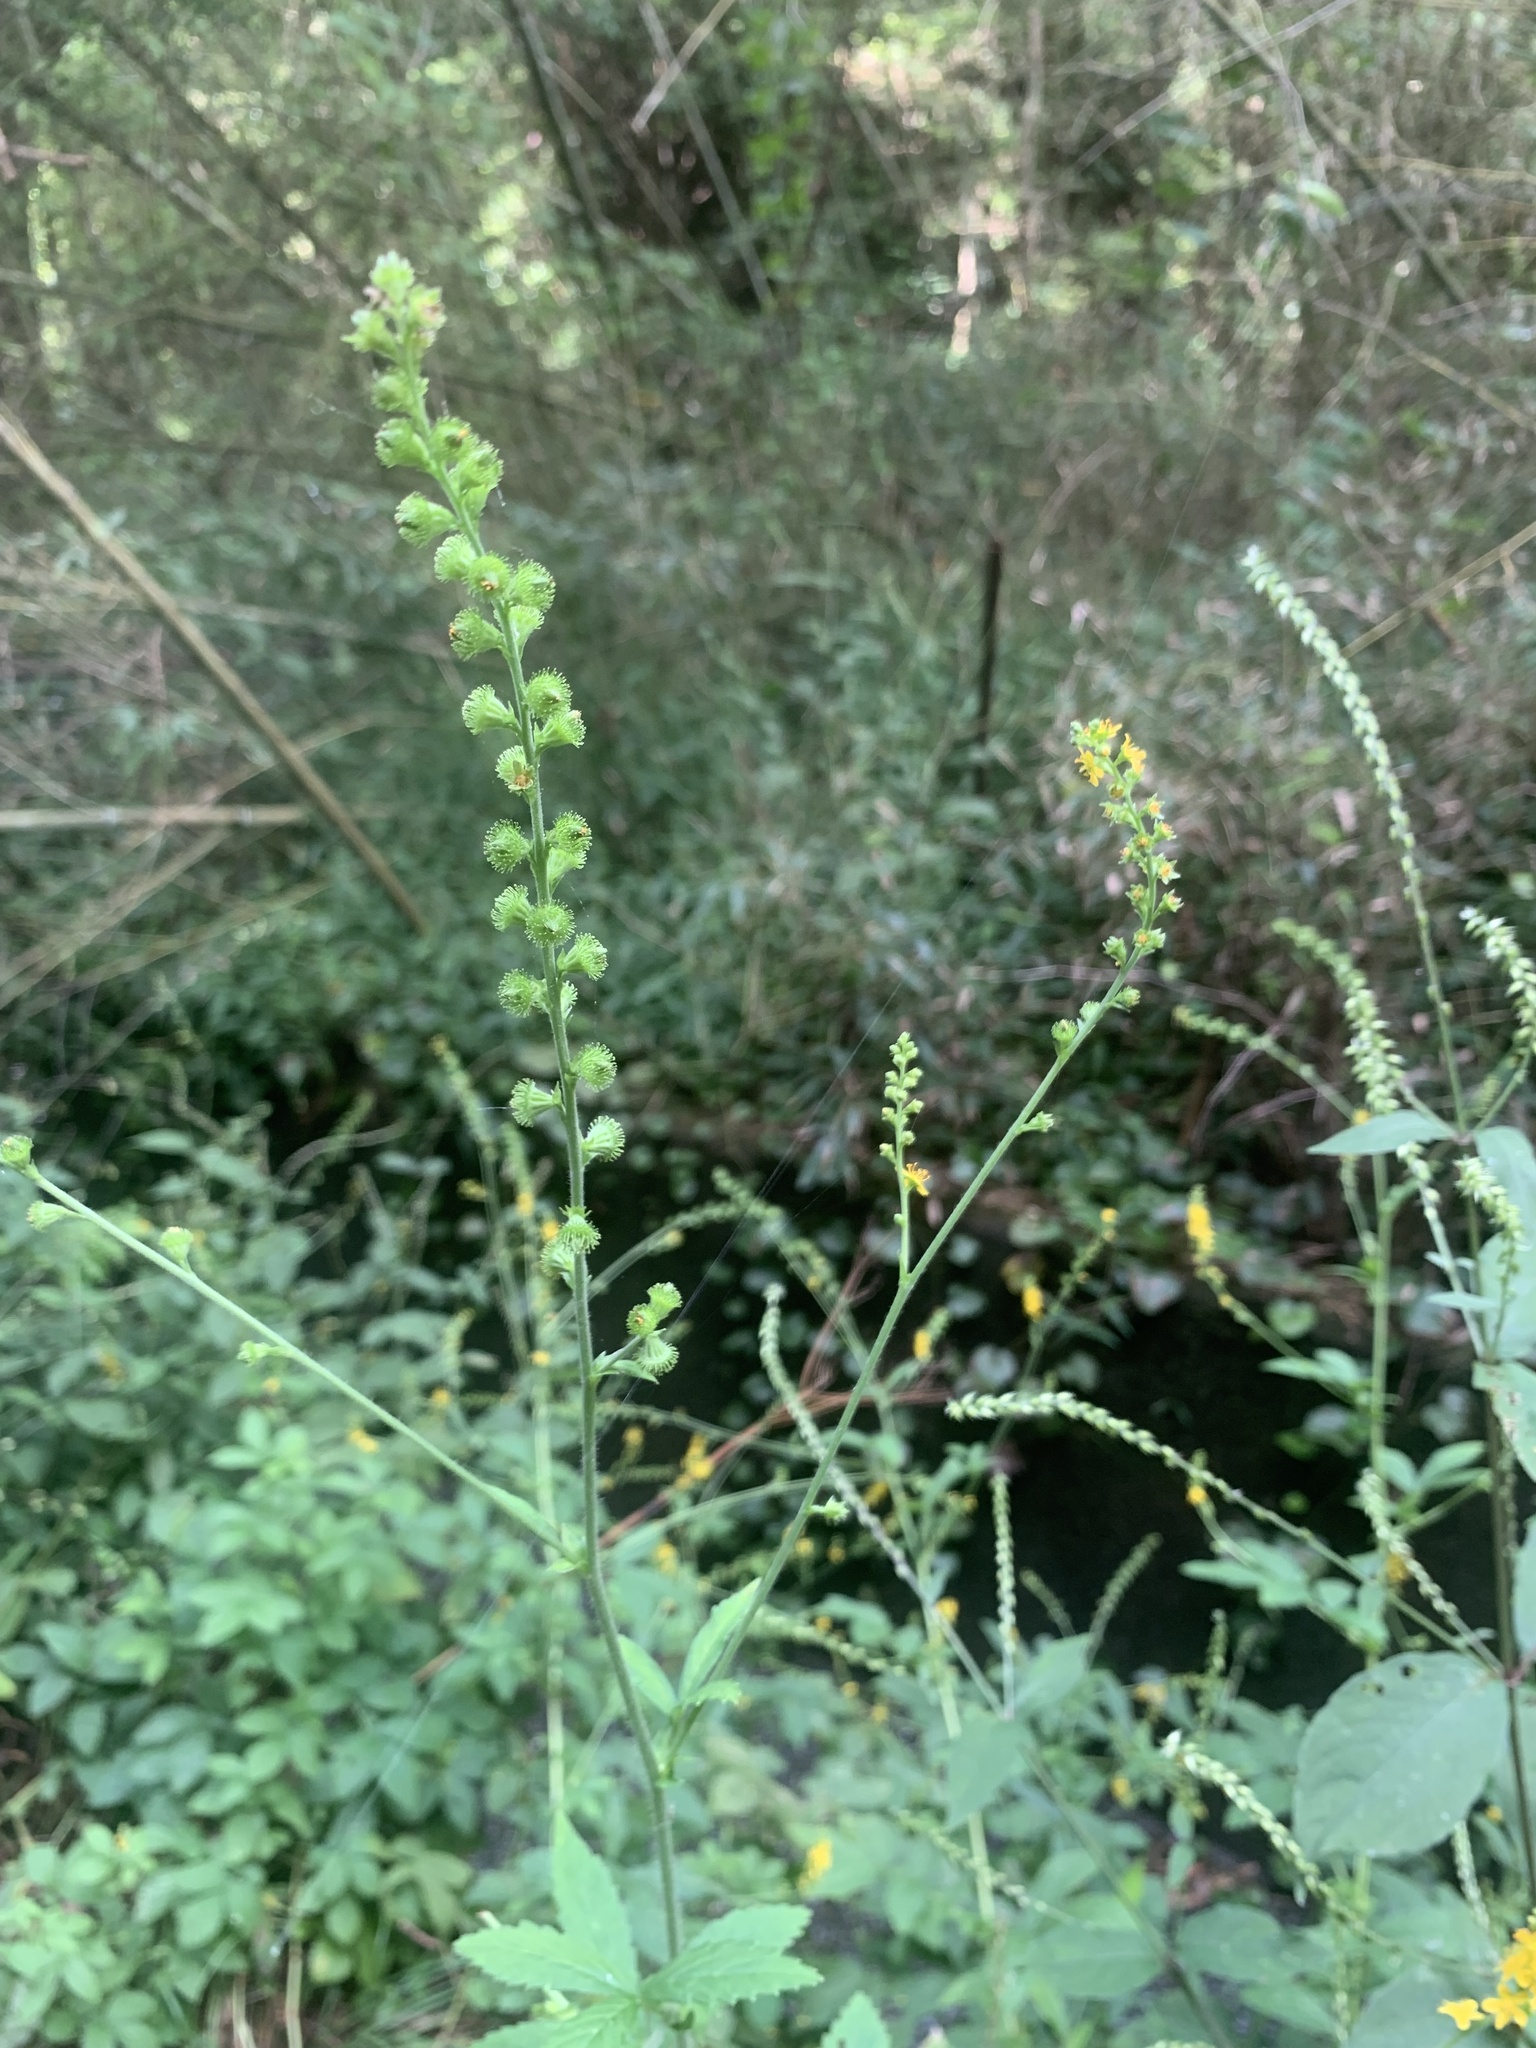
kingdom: Plantae
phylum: Tracheophyta
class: Magnoliopsida
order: Rosales
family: Rosaceae
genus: Agrimonia
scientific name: Agrimonia pilosa
